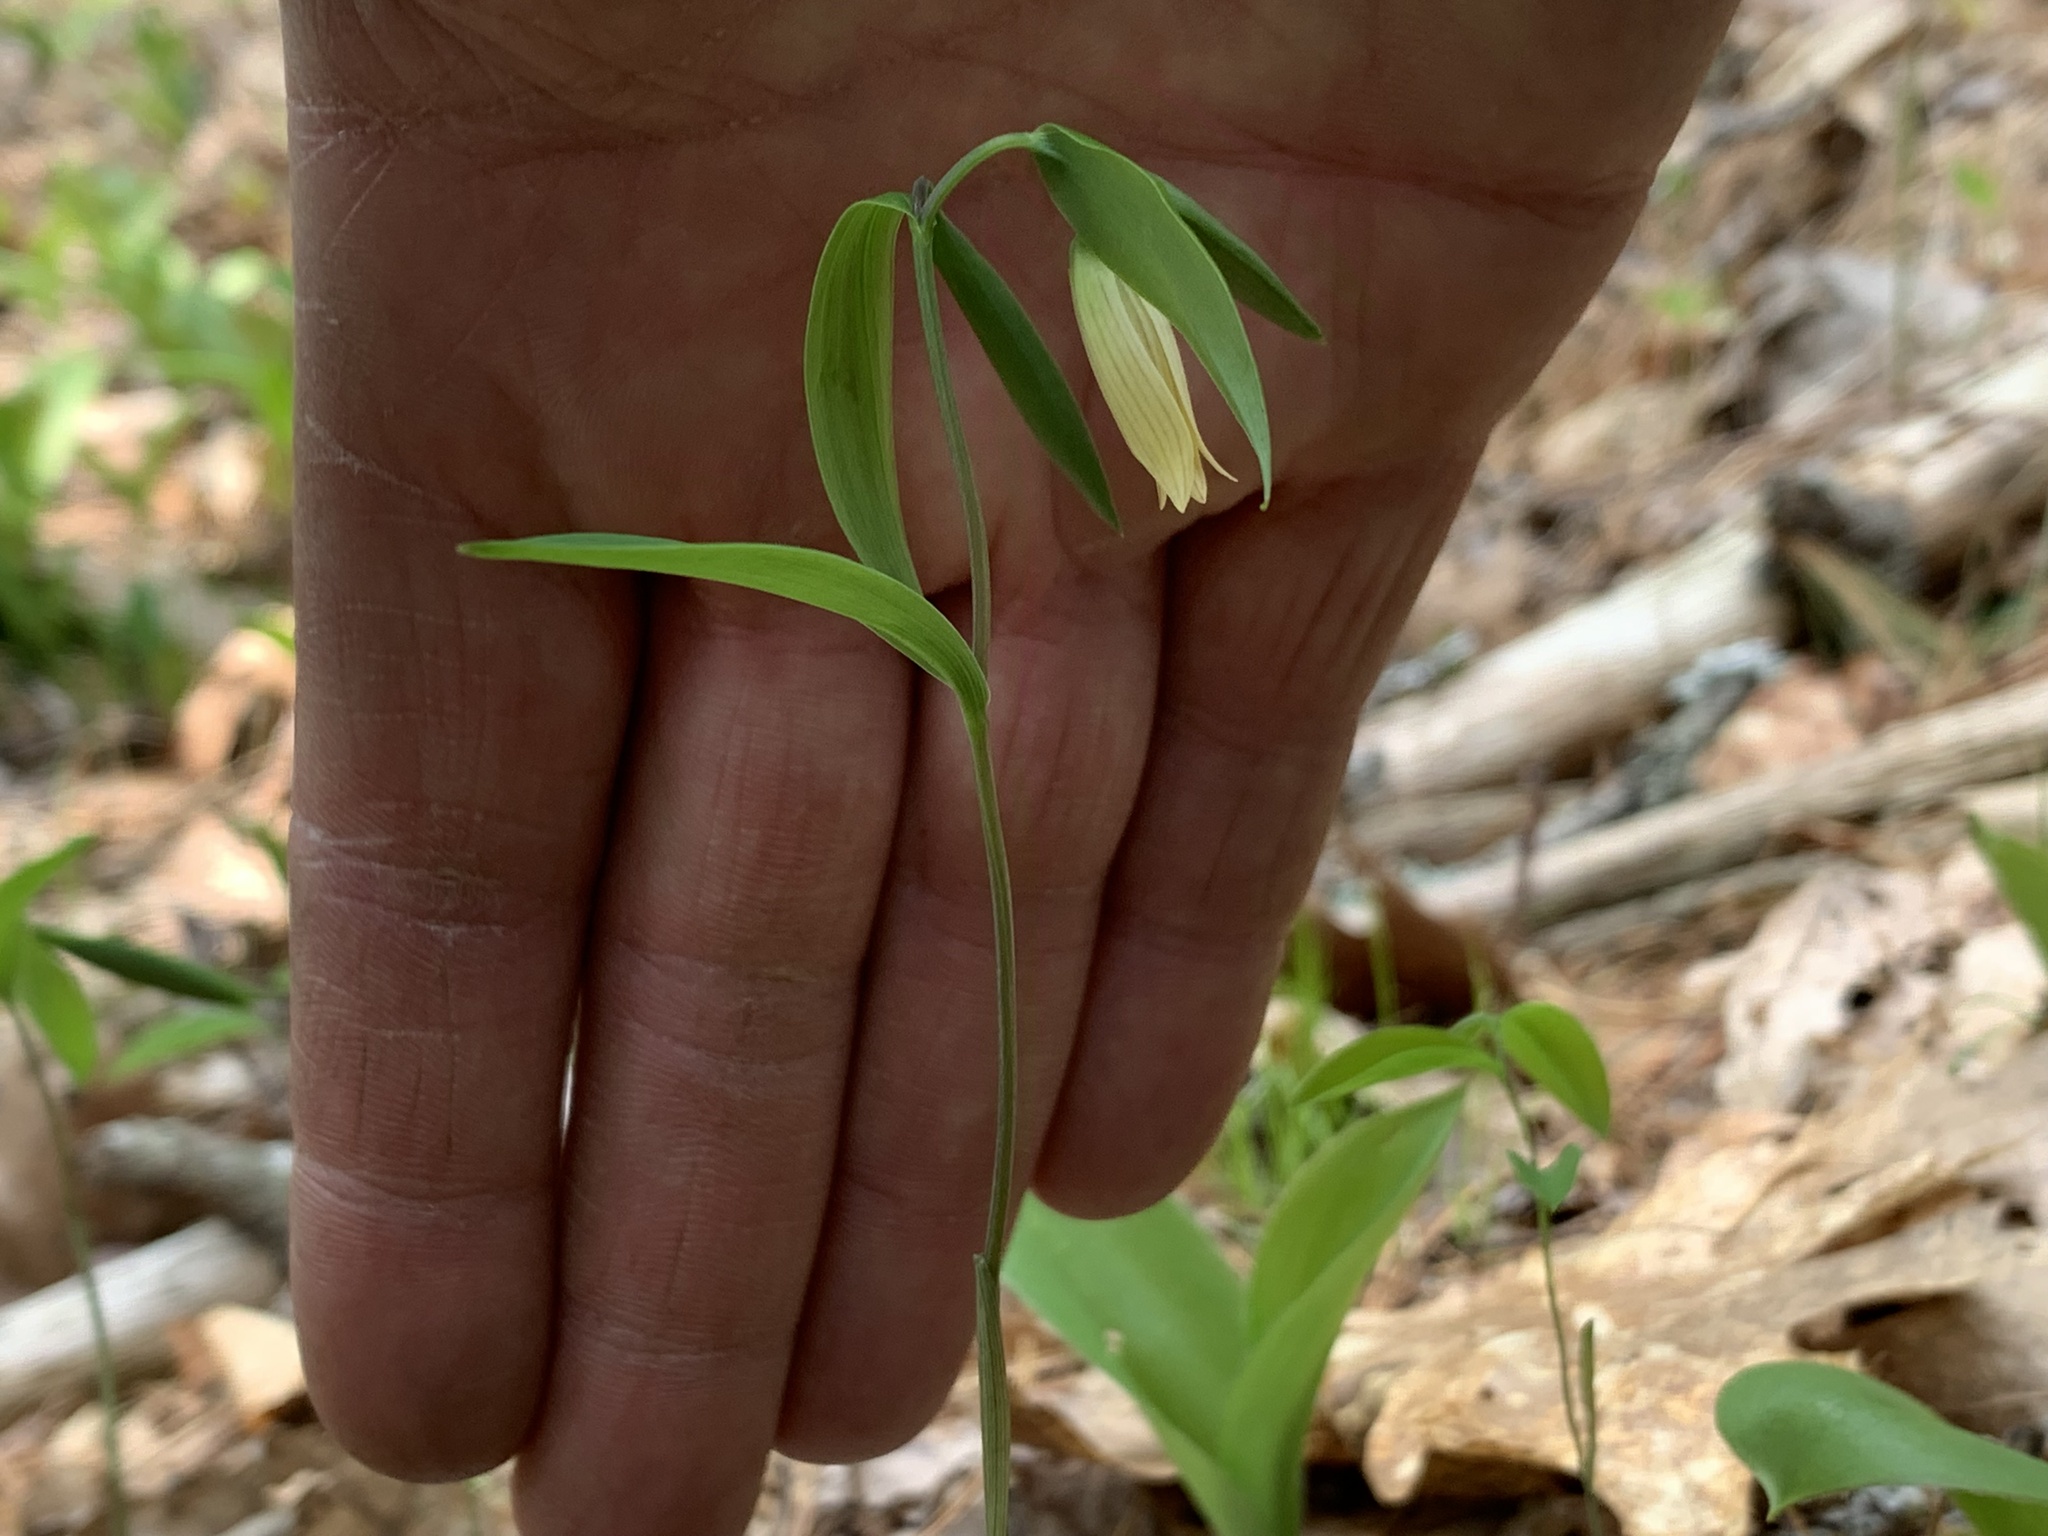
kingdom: Plantae
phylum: Tracheophyta
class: Liliopsida
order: Liliales
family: Colchicaceae
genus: Uvularia
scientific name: Uvularia sessilifolia
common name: Straw-lily
